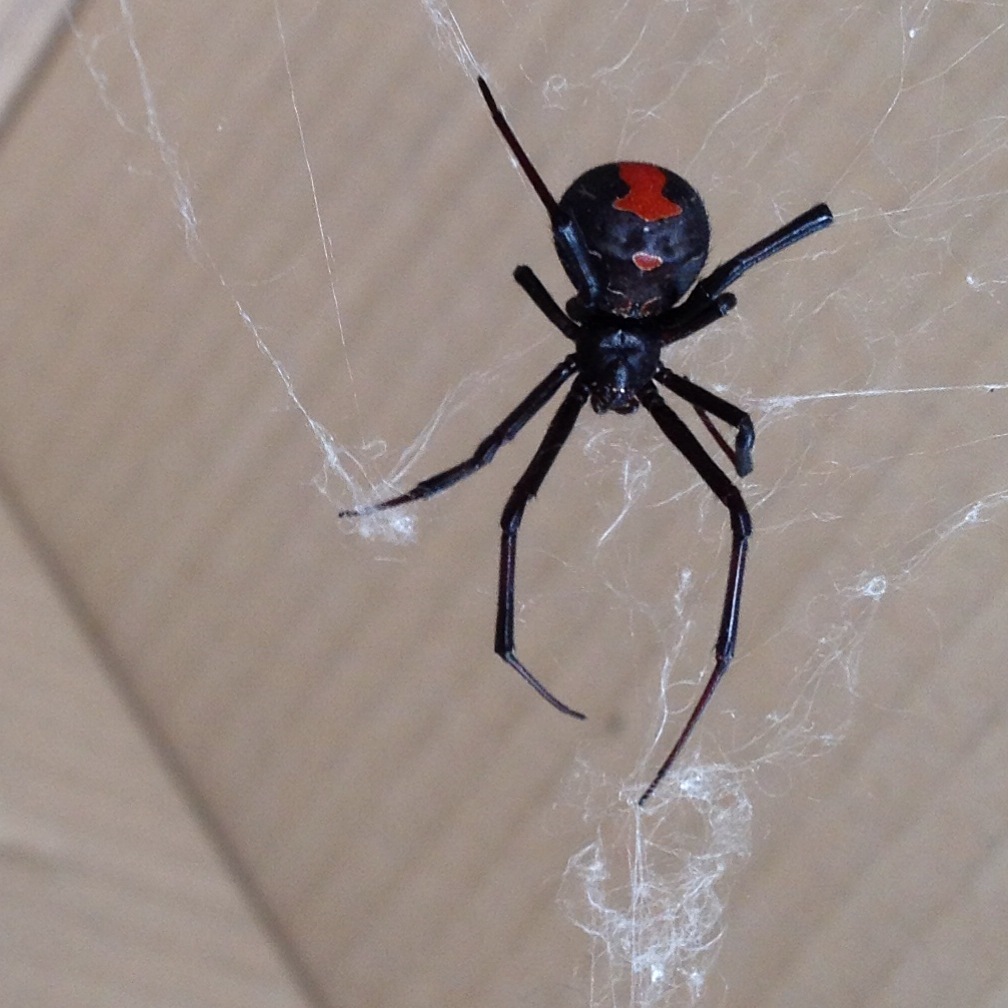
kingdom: Animalia
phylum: Arthropoda
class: Arachnida
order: Araneae
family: Theridiidae
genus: Latrodectus
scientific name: Latrodectus hasselti
